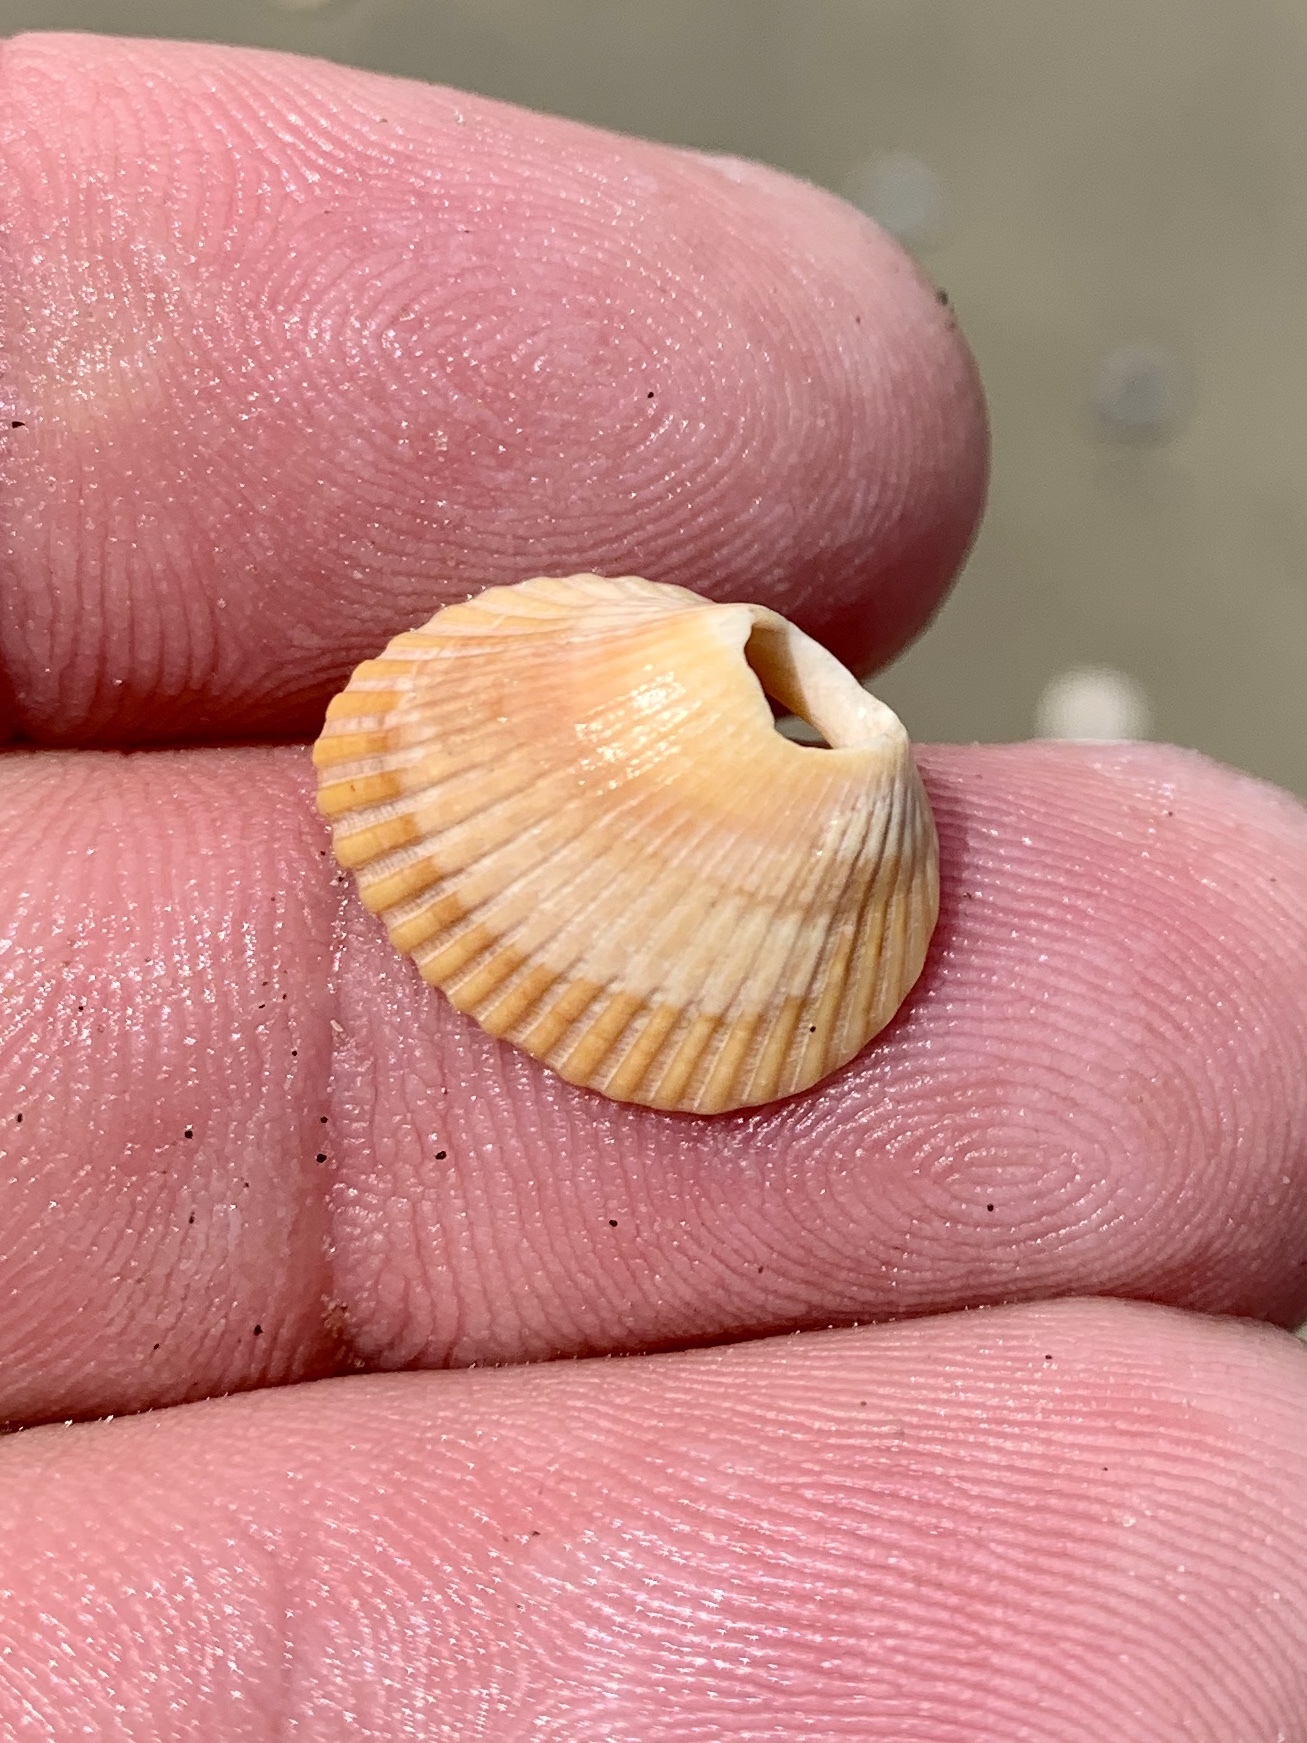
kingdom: Animalia
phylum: Mollusca
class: Bivalvia
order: Arcida
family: Noetiidae
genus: Noetia
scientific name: Noetia ponderosa
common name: Ponderous ark
